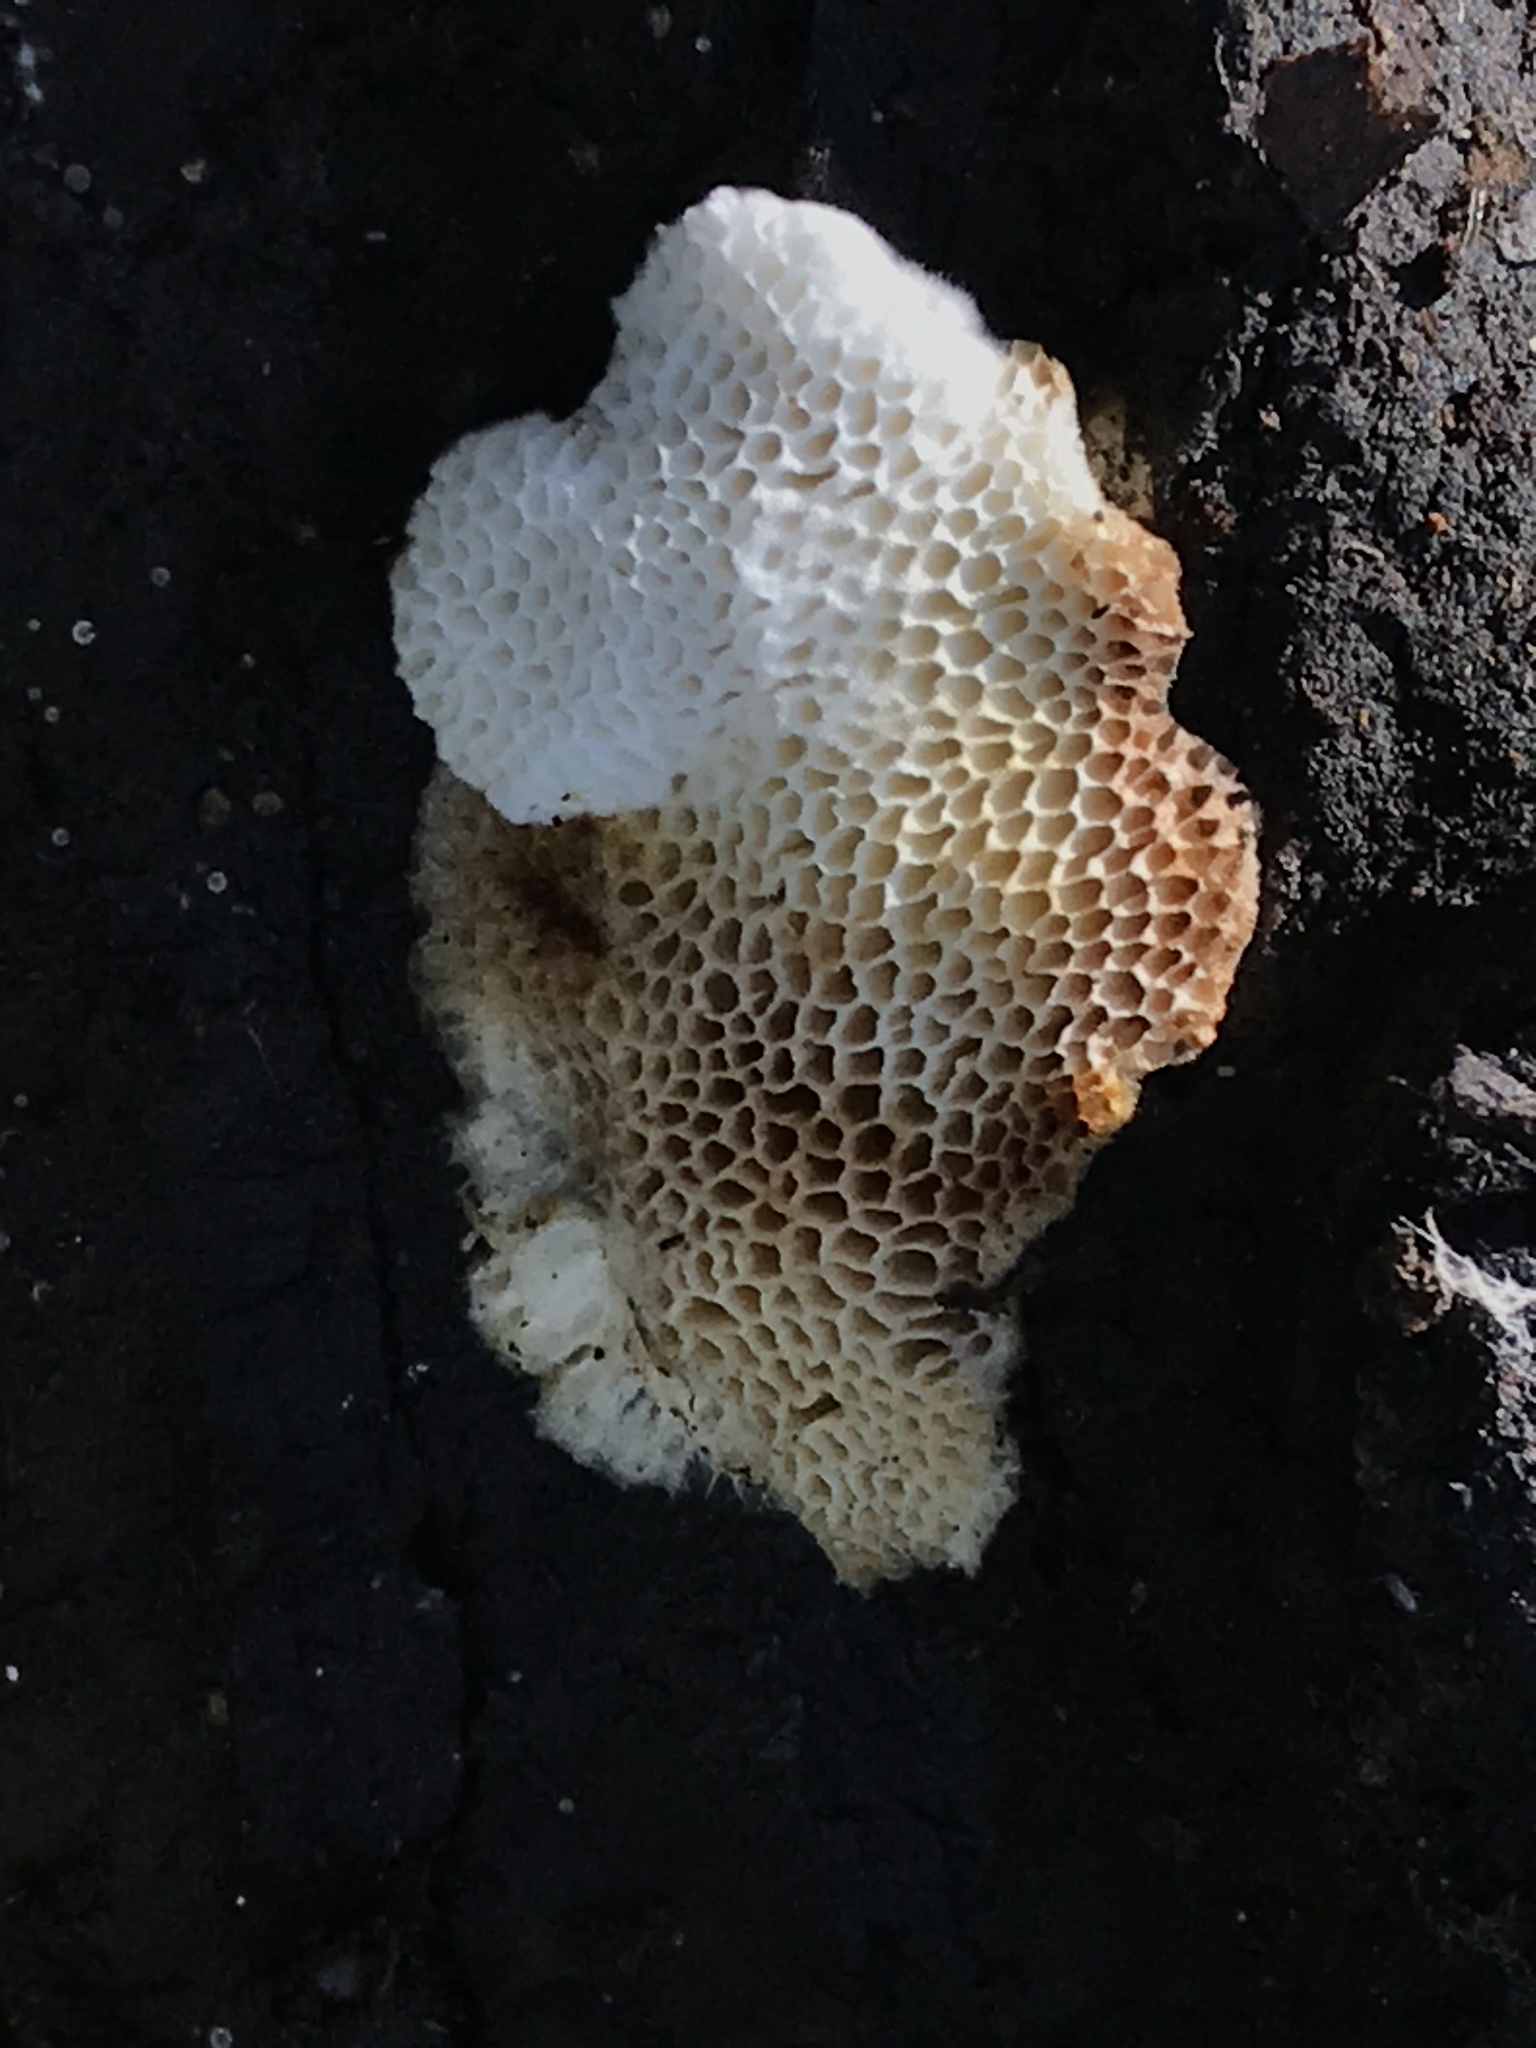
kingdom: Fungi
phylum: Basidiomycota
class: Agaricomycetes
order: Polyporales
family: Fomitopsidaceae
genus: Fomitopsis
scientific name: Fomitopsis
